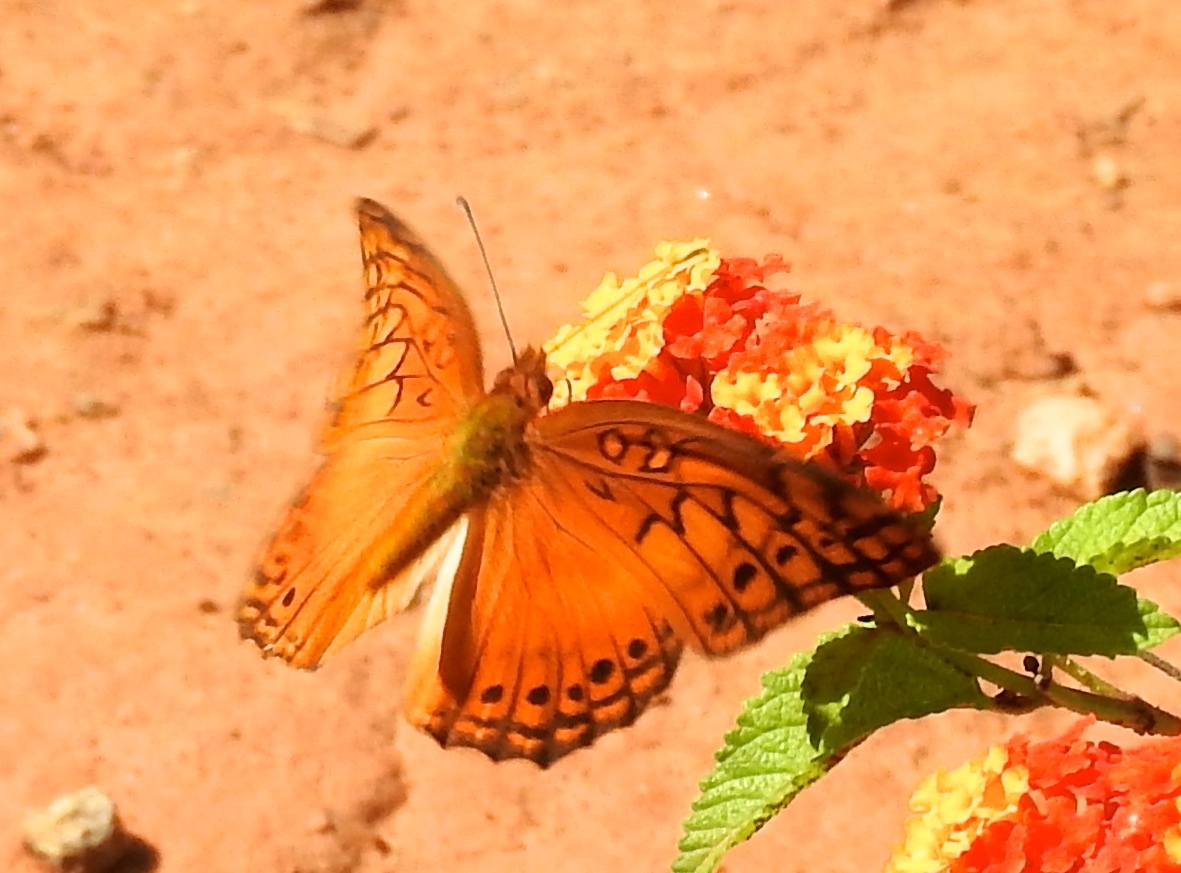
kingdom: Animalia
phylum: Arthropoda
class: Insecta
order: Lepidoptera
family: Nymphalidae
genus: Euptoieta
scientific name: Euptoieta hegesia
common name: Mexican fritillary
